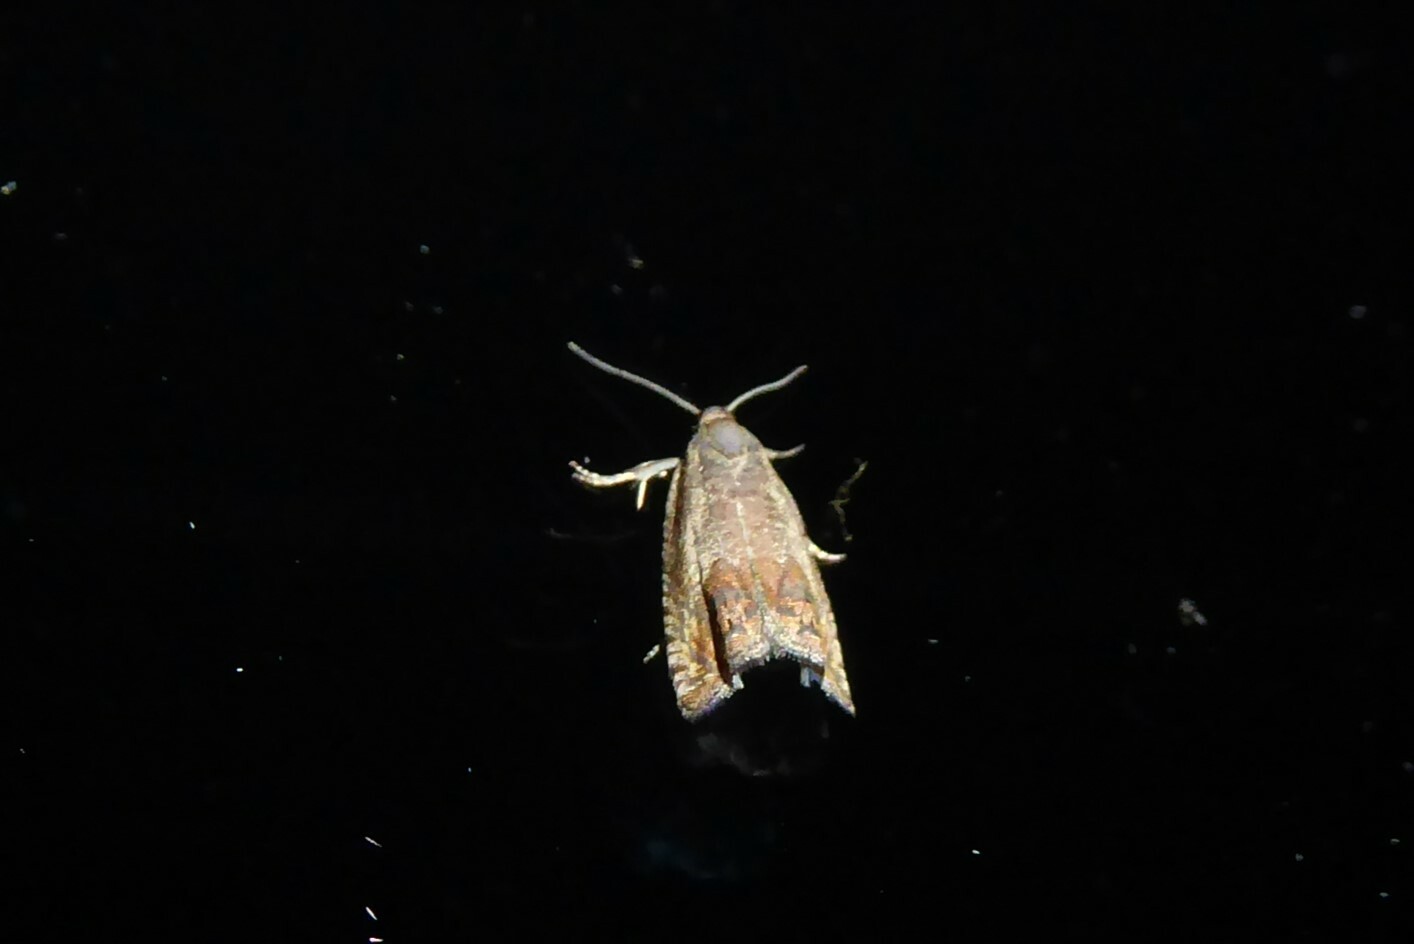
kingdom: Animalia
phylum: Arthropoda
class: Insecta
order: Lepidoptera
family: Tortricidae
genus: Cydia
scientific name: Cydia succedana
